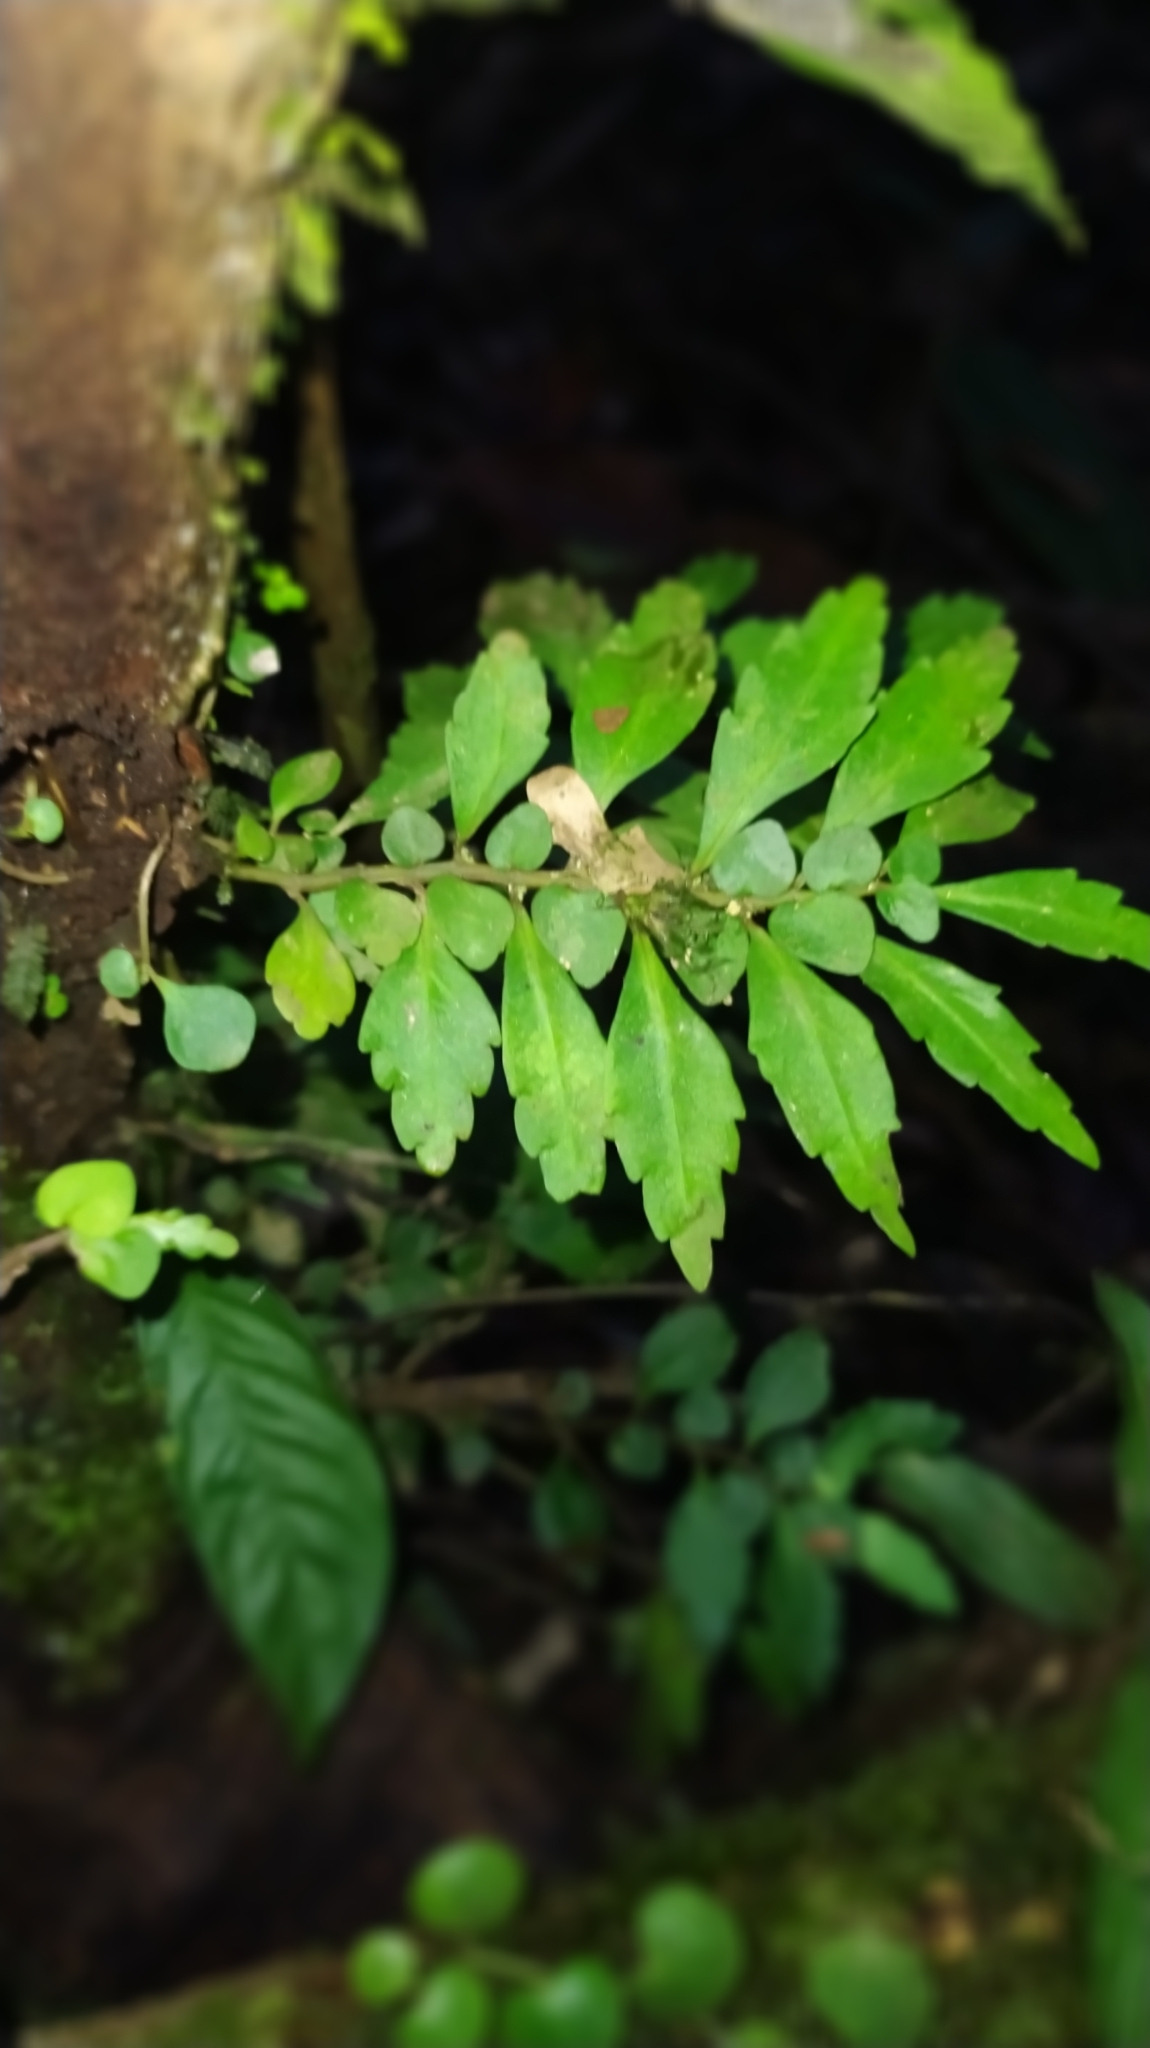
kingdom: Plantae
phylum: Tracheophyta
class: Magnoliopsida
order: Rosales
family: Urticaceae
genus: Pilea
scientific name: Pilea imparifolia
